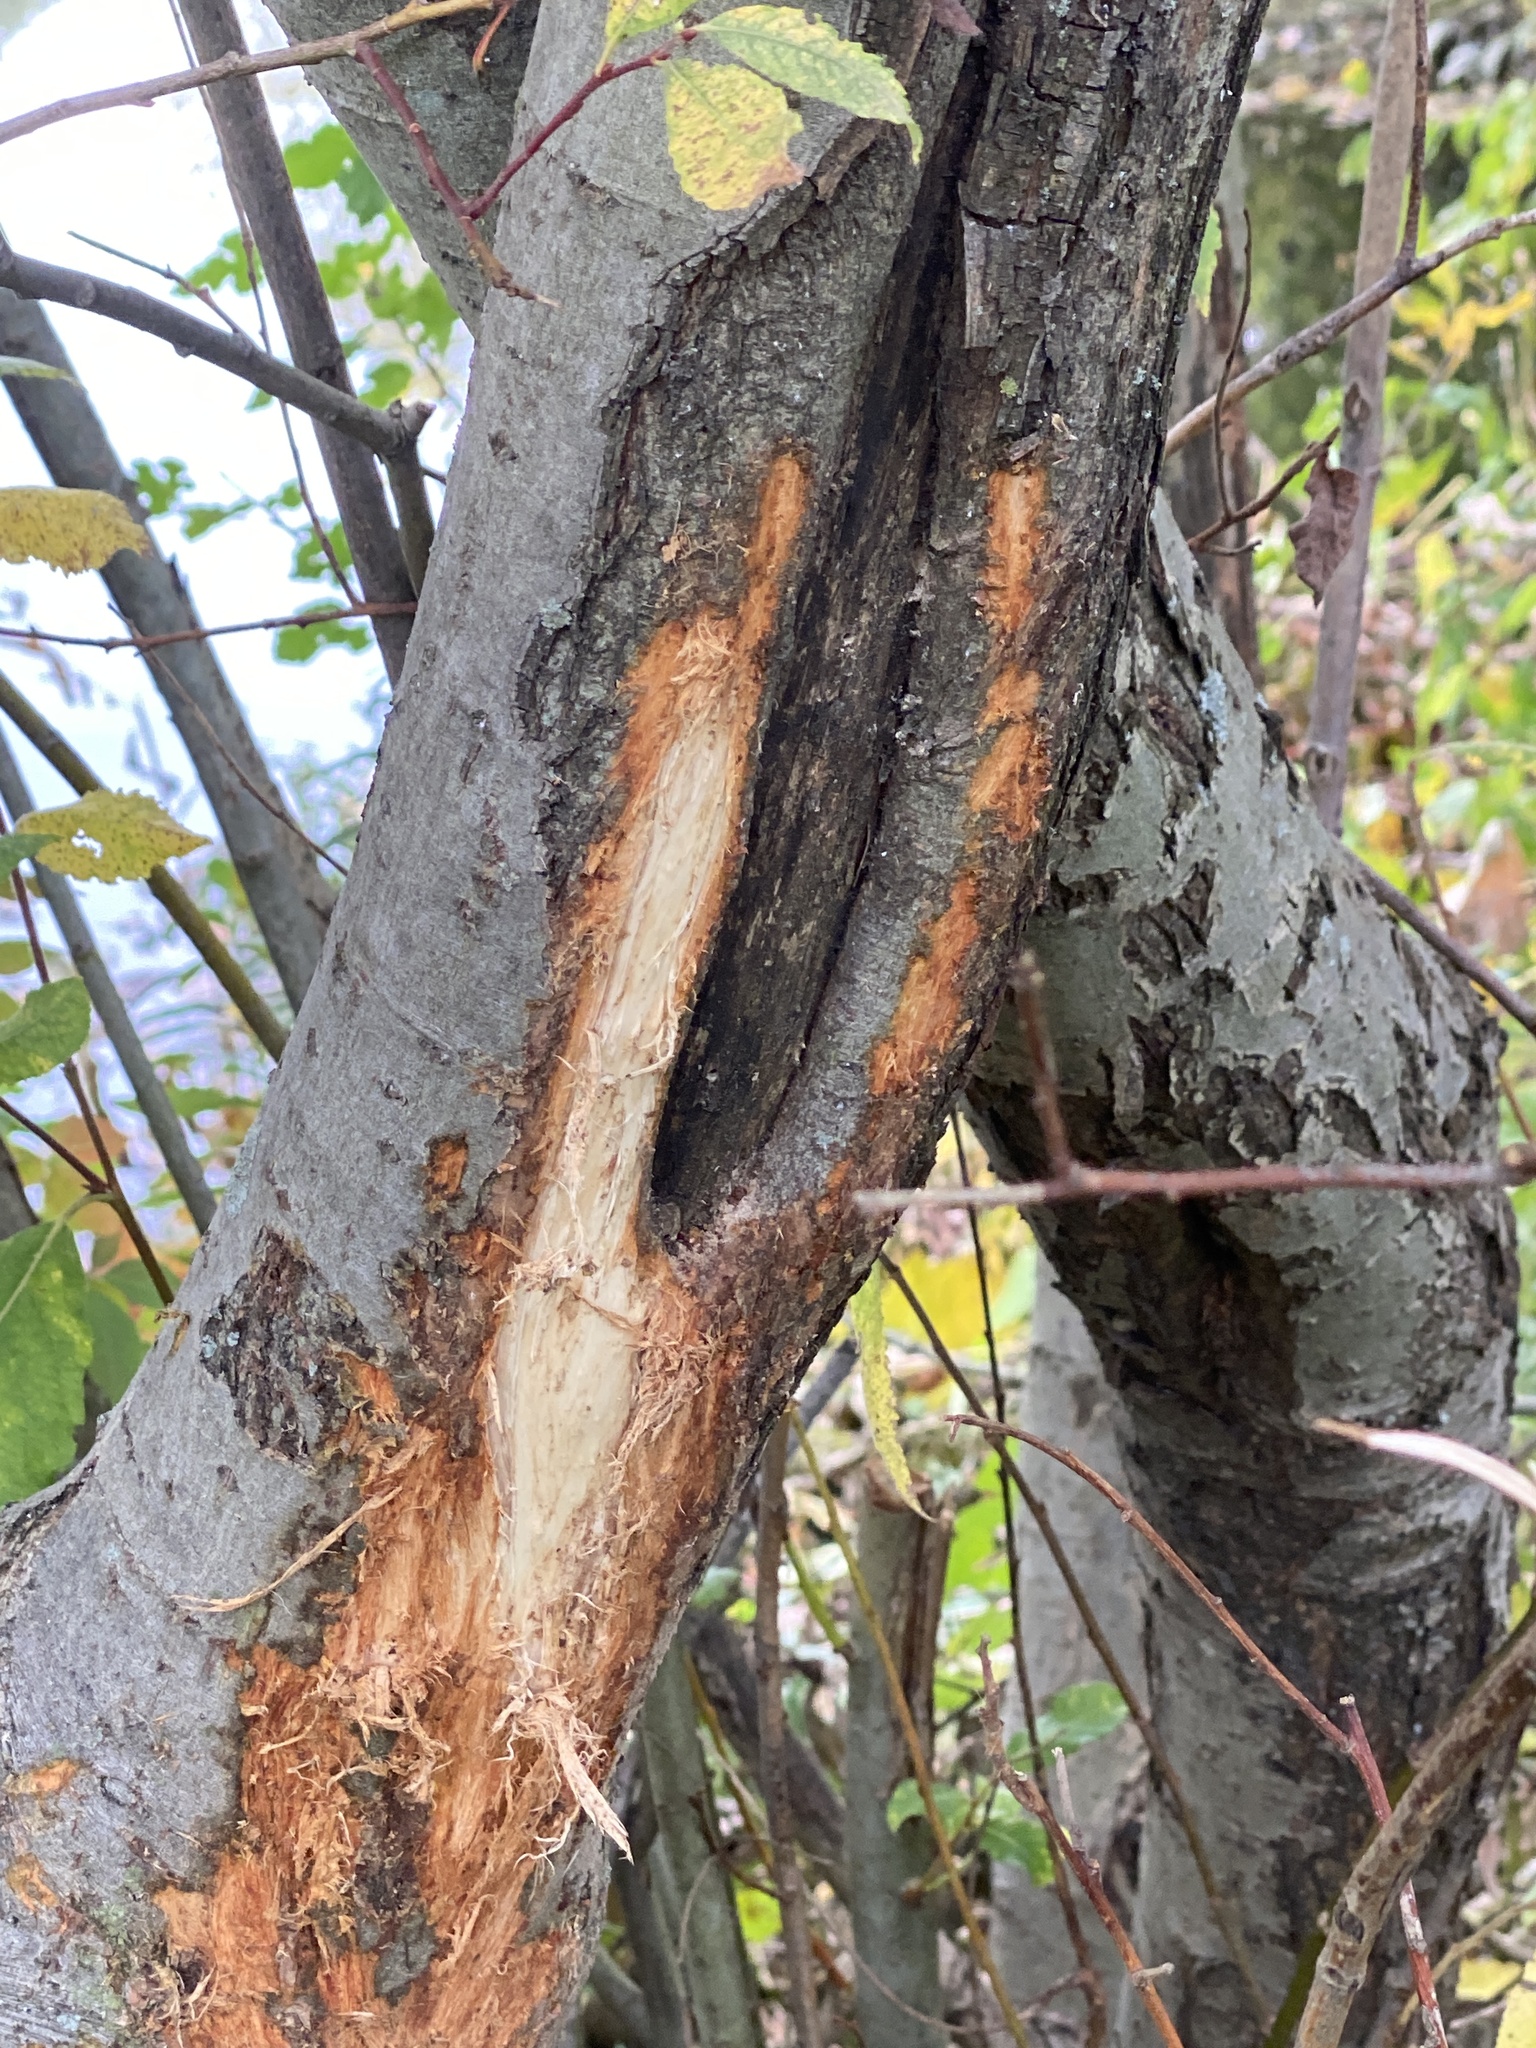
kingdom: Animalia
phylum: Chordata
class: Mammalia
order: Artiodactyla
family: Cervidae
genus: Odocoileus
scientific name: Odocoileus virginianus
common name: White-tailed deer
